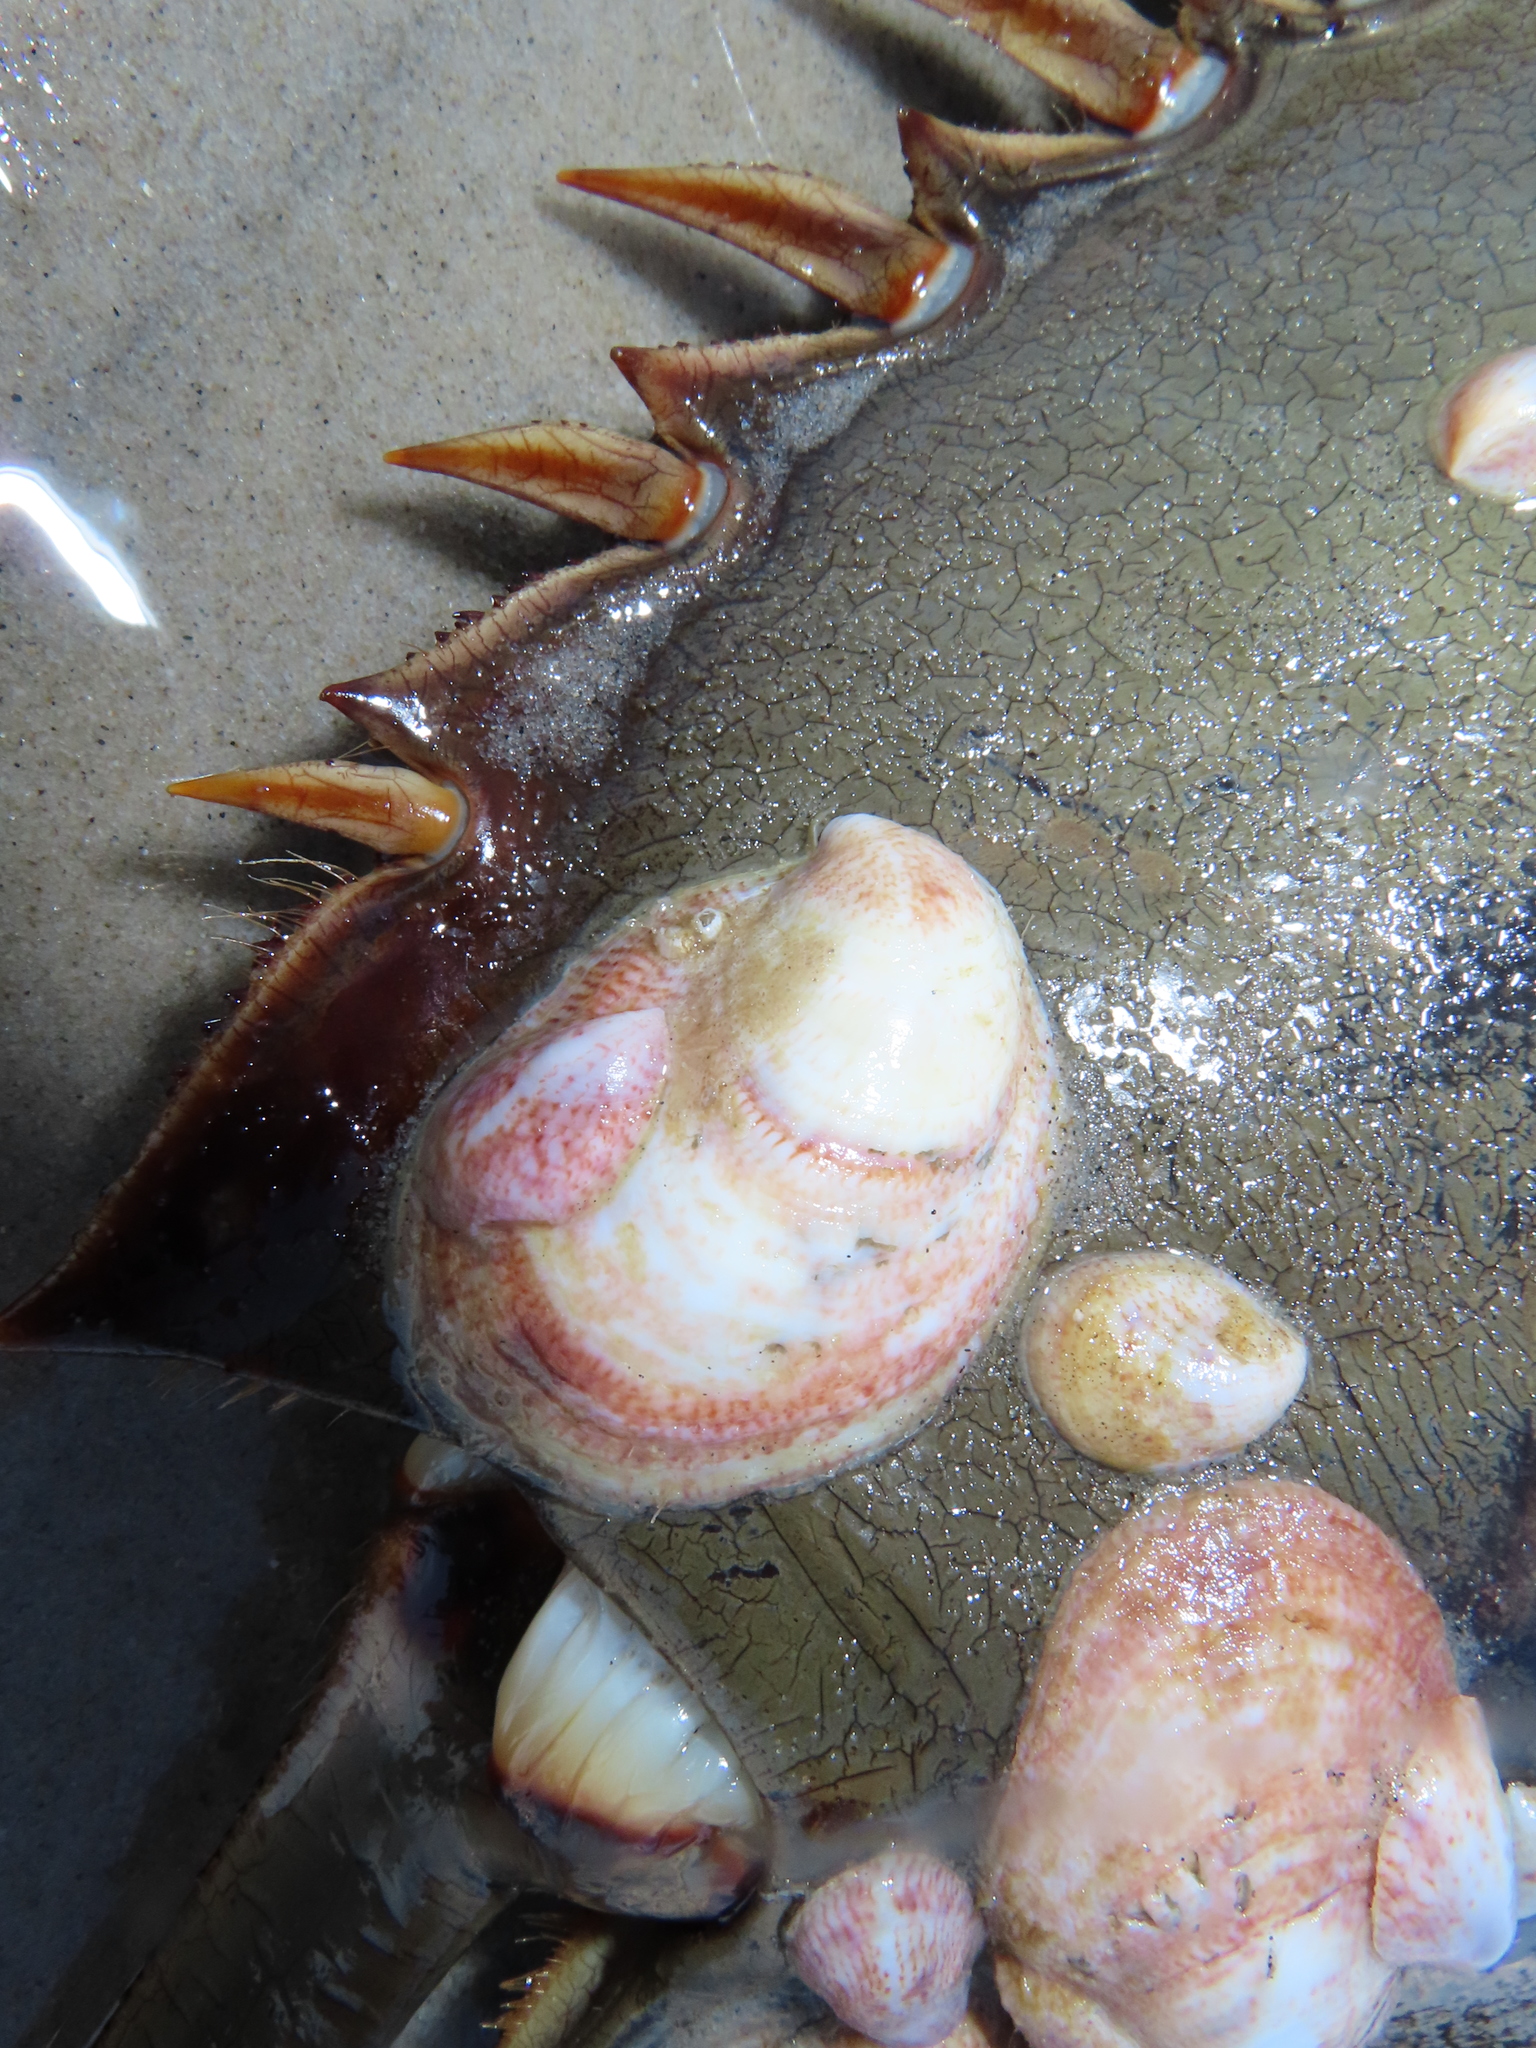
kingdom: Animalia
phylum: Mollusca
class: Gastropoda
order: Littorinimorpha
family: Calyptraeidae
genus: Crepidula
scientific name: Crepidula fornicata
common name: Slipper limpet
